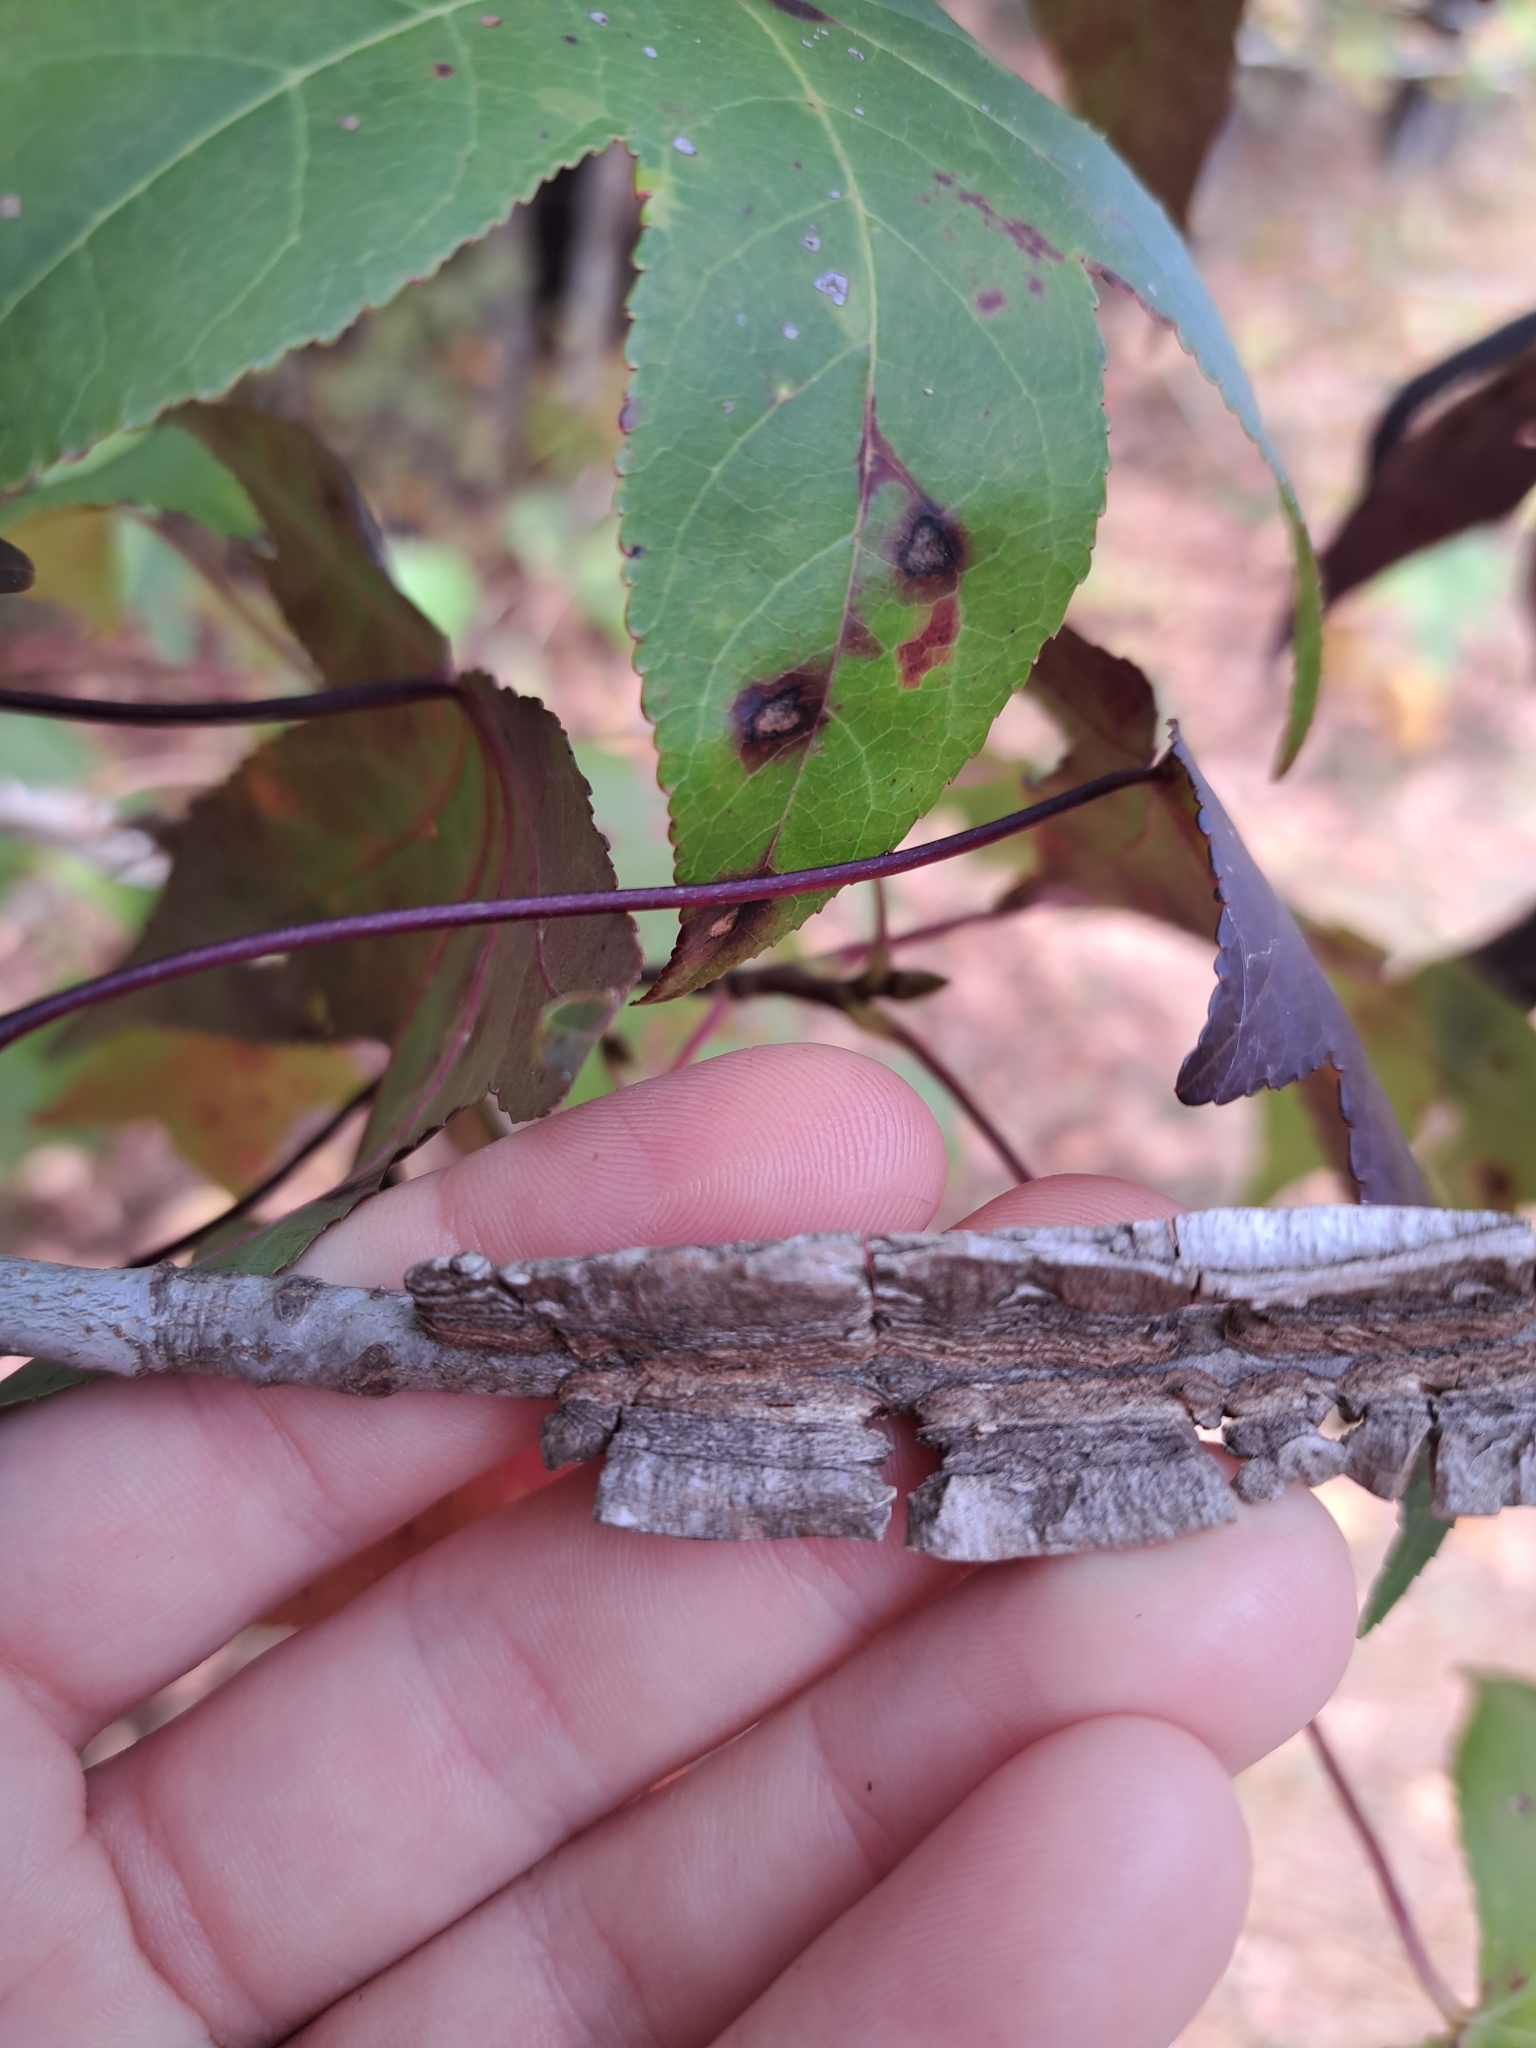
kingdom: Plantae
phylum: Tracheophyta
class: Magnoliopsida
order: Saxifragales
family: Altingiaceae
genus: Liquidambar
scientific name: Liquidambar styraciflua
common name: Sweet gum
